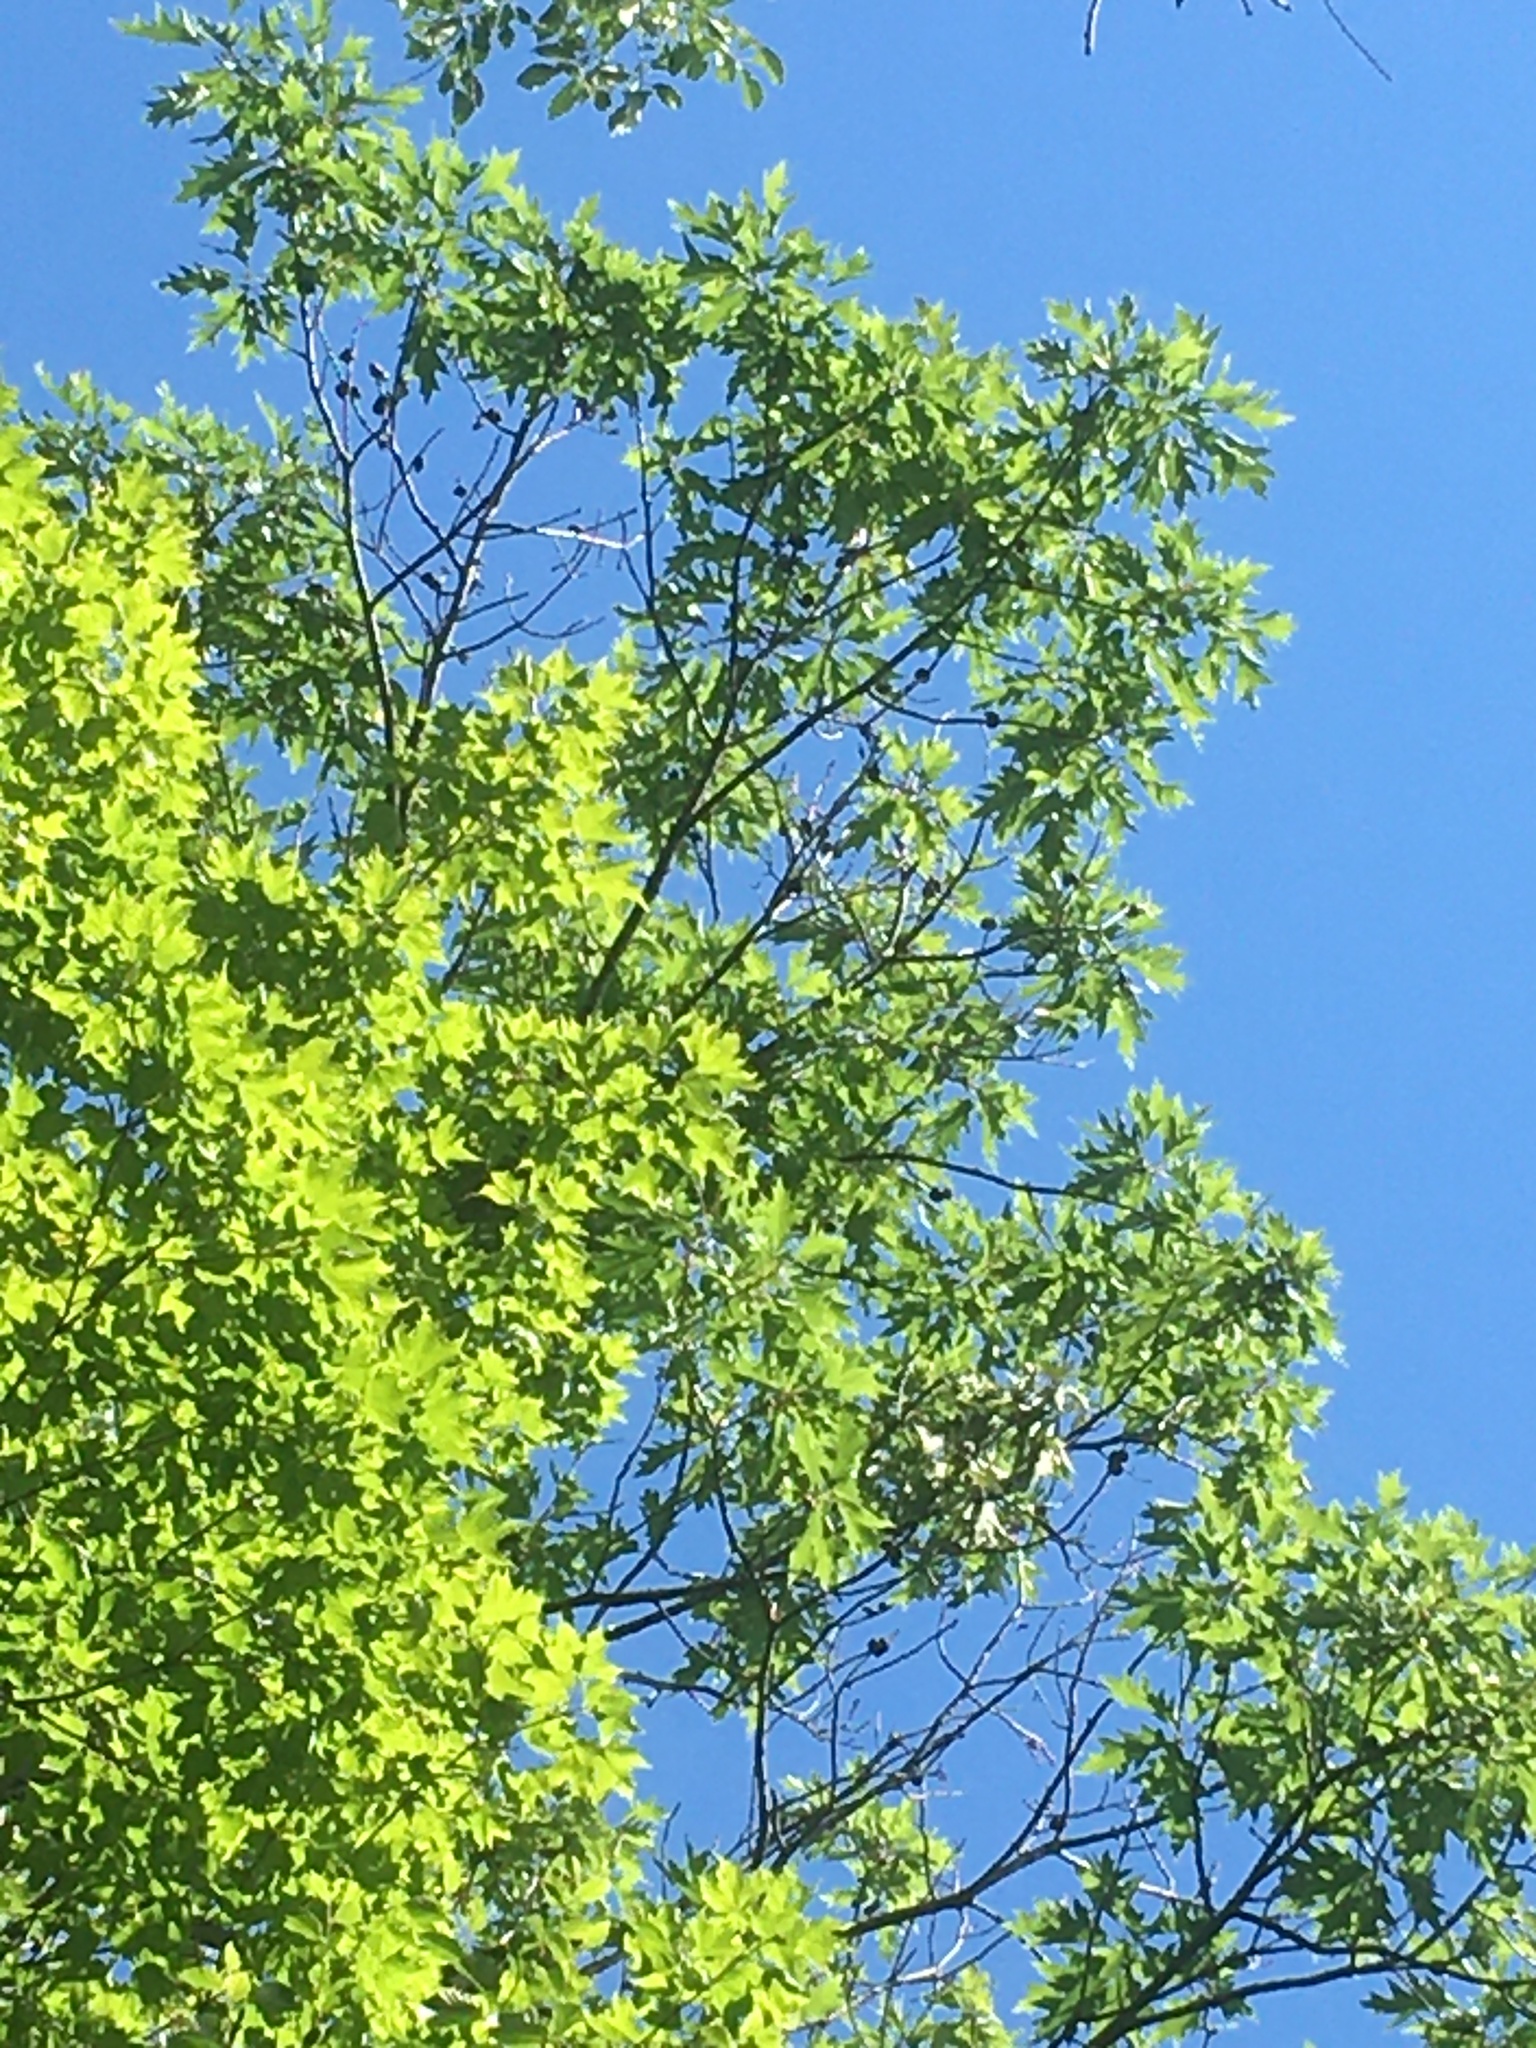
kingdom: Plantae
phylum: Tracheophyta
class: Magnoliopsida
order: Fagales
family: Fagaceae
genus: Quercus
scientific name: Quercus rubra
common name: Red oak
